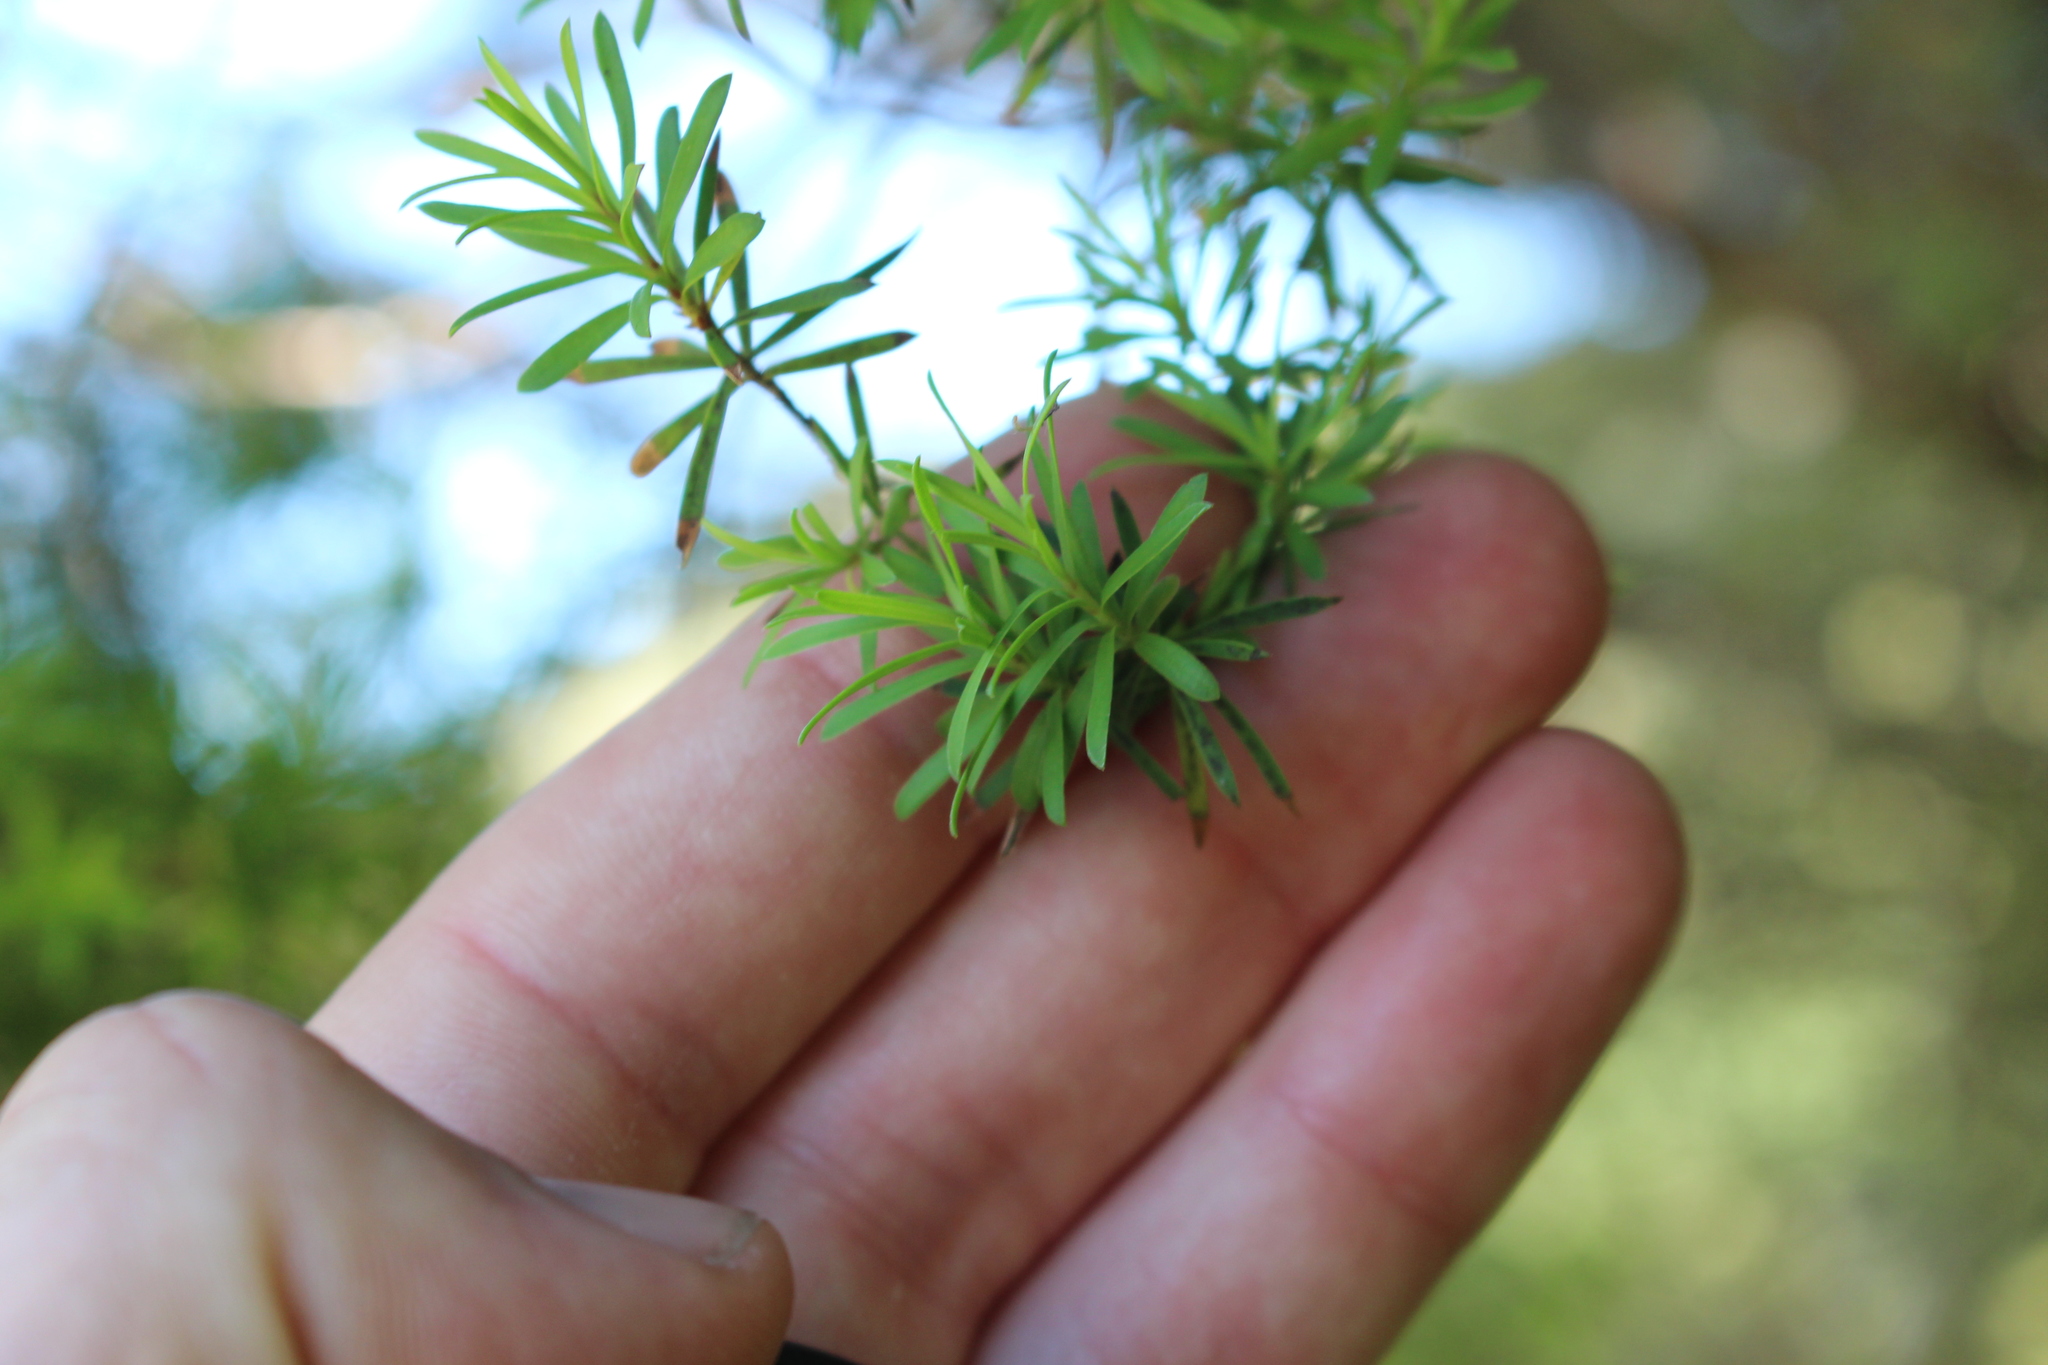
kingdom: Plantae
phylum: Tracheophyta
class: Magnoliopsida
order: Myrtales
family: Myrtaceae
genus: Kunzea
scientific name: Kunzea robusta
